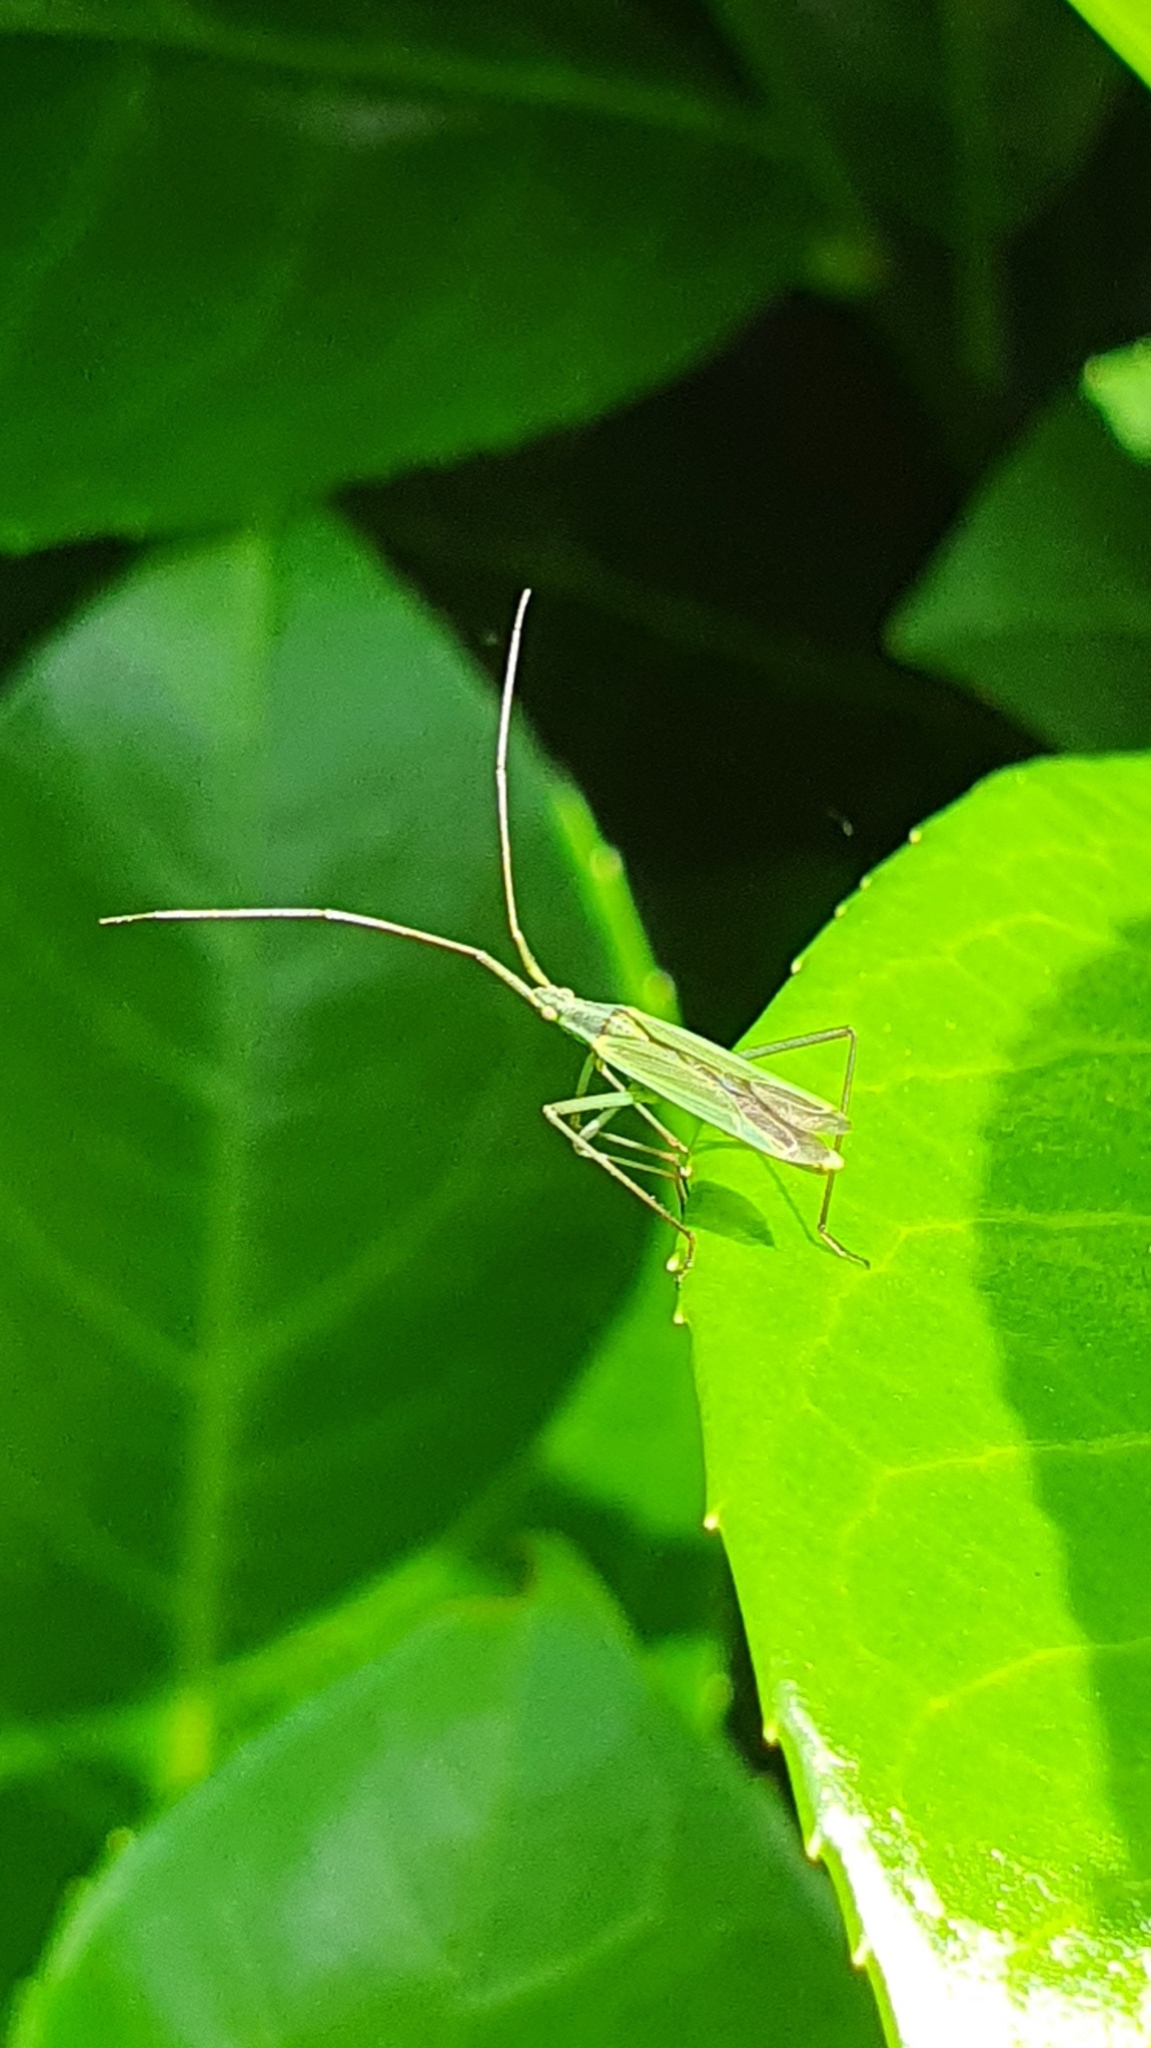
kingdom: Animalia
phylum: Arthropoda
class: Insecta
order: Hemiptera
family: Miridae
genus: Megaloceroea
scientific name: Megaloceroea recticornis
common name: Plant bug
